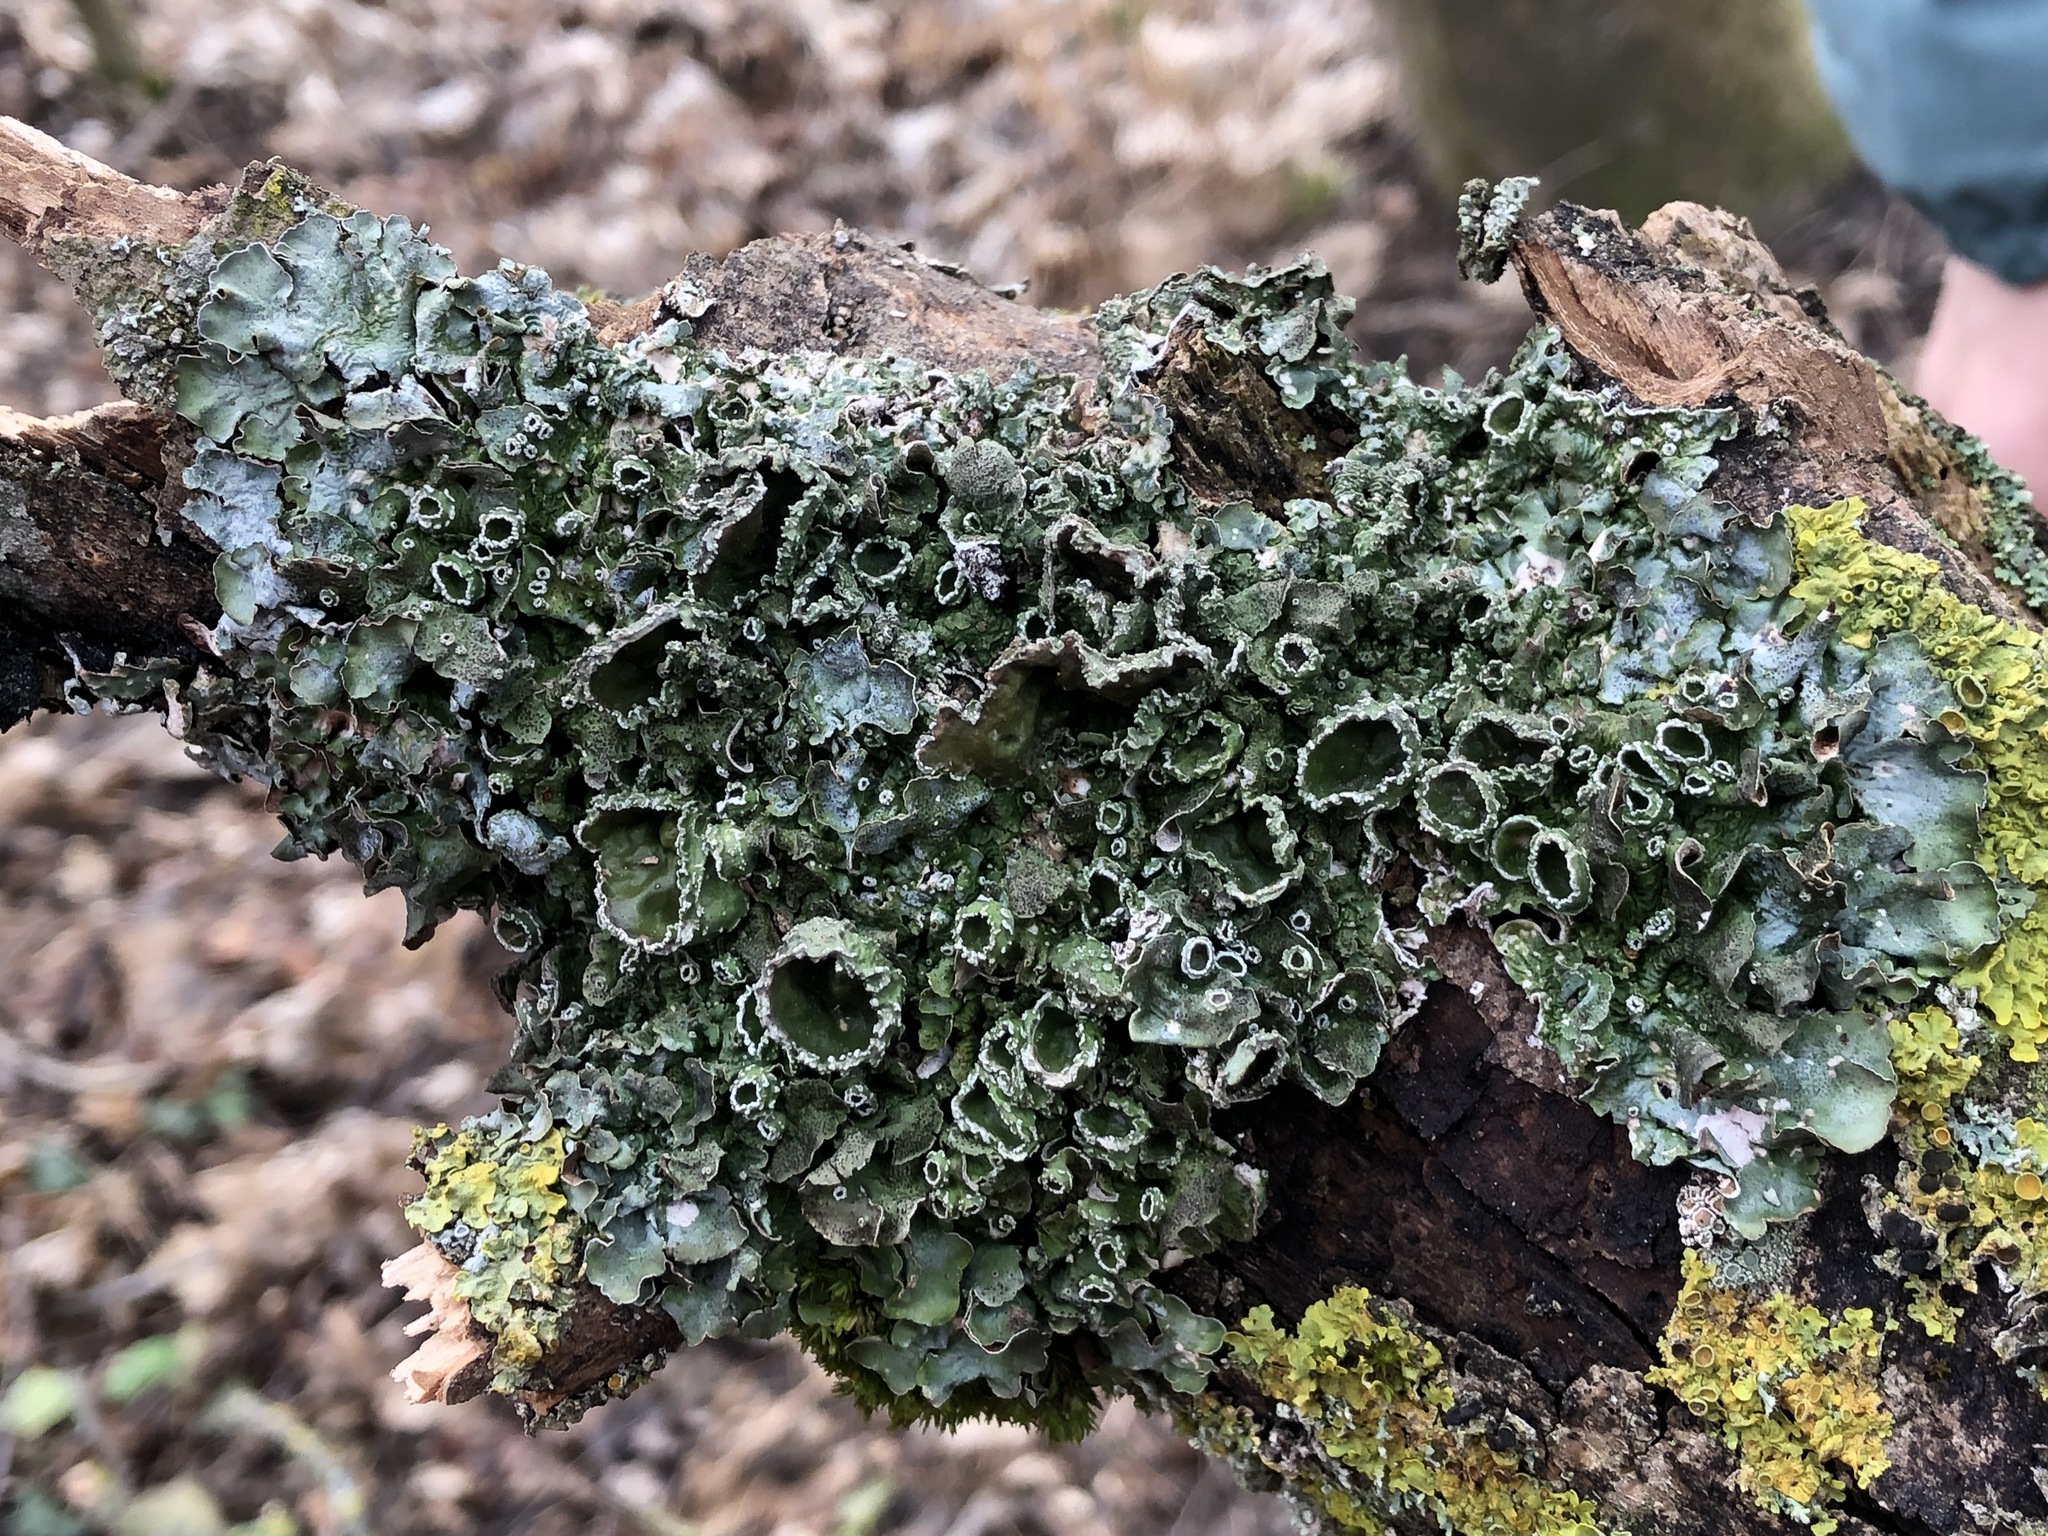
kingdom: Fungi
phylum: Ascomycota
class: Lecanoromycetes
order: Lecanorales
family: Parmeliaceae
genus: Pleurosticta
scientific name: Pleurosticta acetabulum
